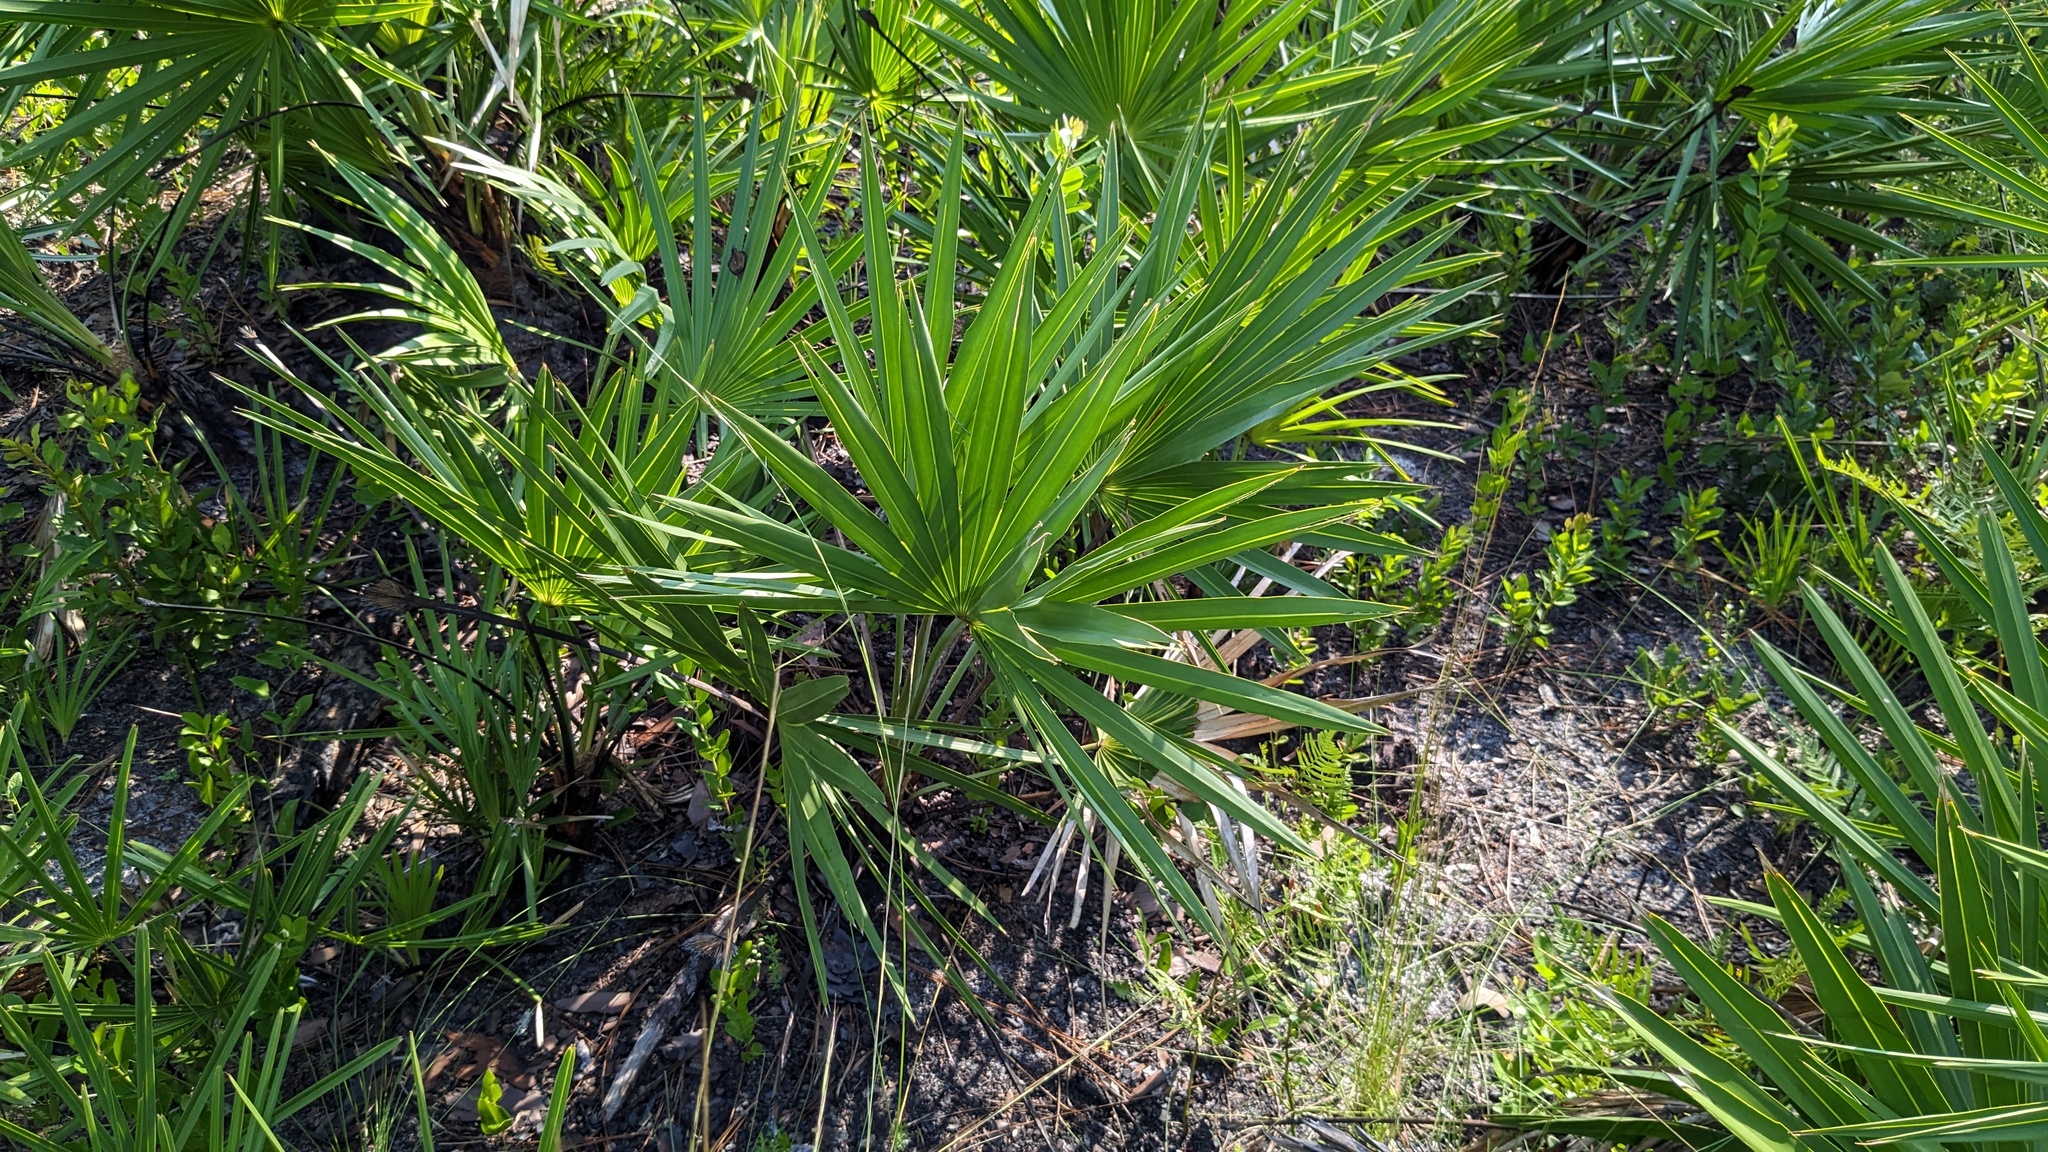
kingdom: Plantae
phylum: Tracheophyta
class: Liliopsida
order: Arecales
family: Arecaceae
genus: Serenoa
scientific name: Serenoa repens
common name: Saw-palmetto
